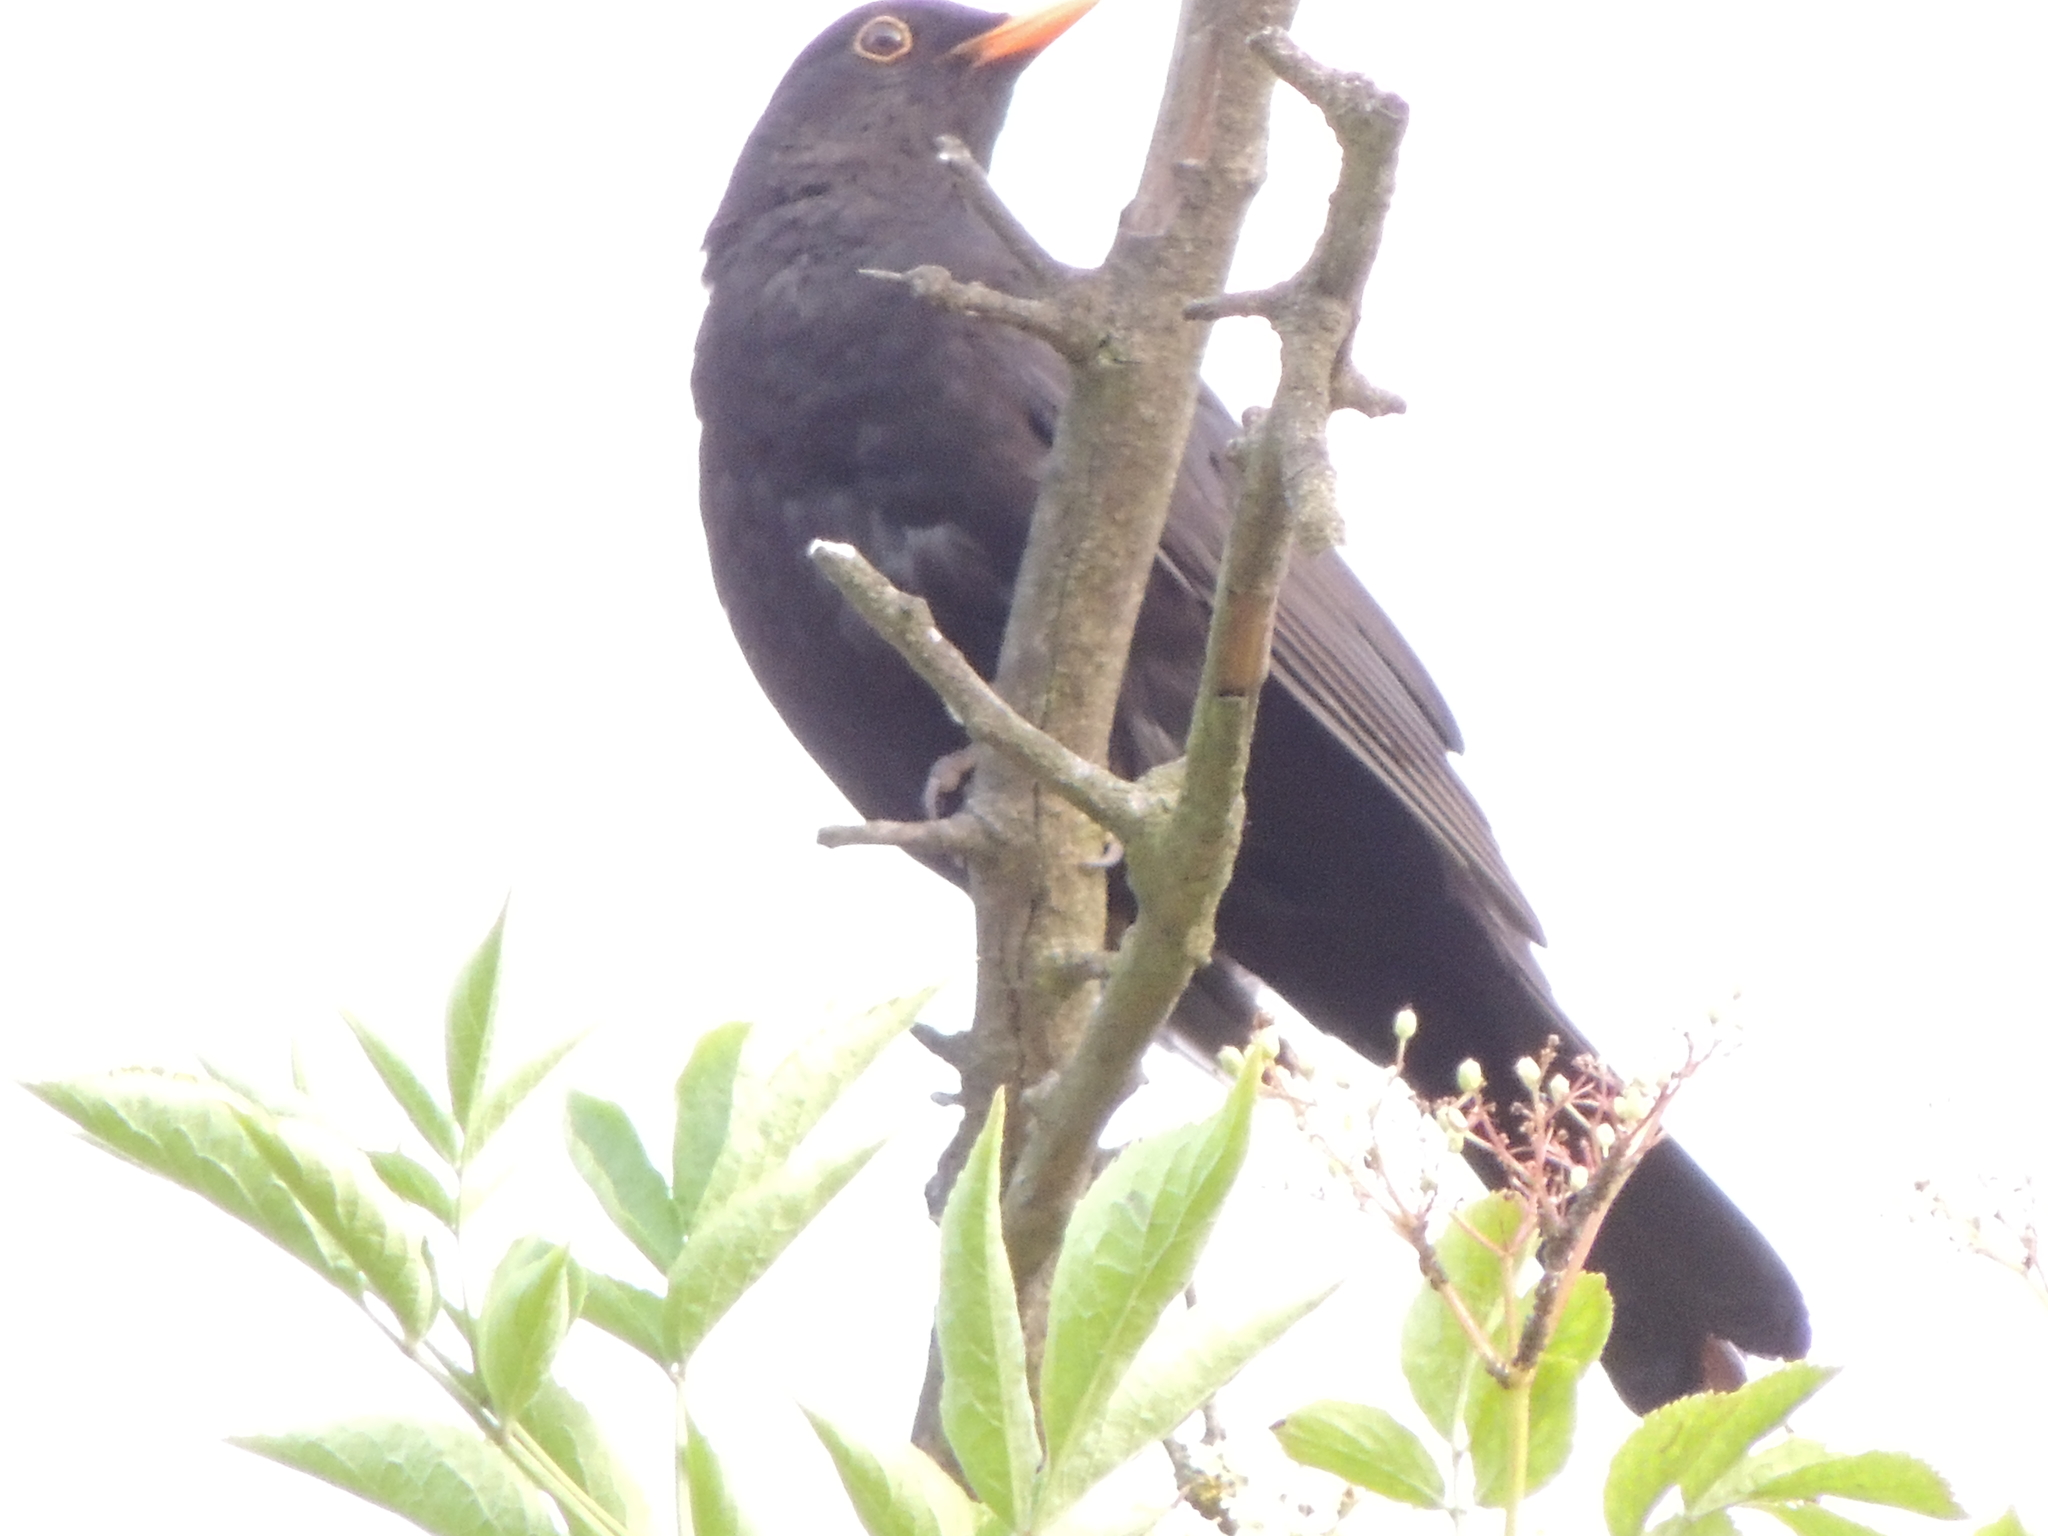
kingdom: Animalia
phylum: Chordata
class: Aves
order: Passeriformes
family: Turdidae
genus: Turdus
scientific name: Turdus merula
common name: Common blackbird
